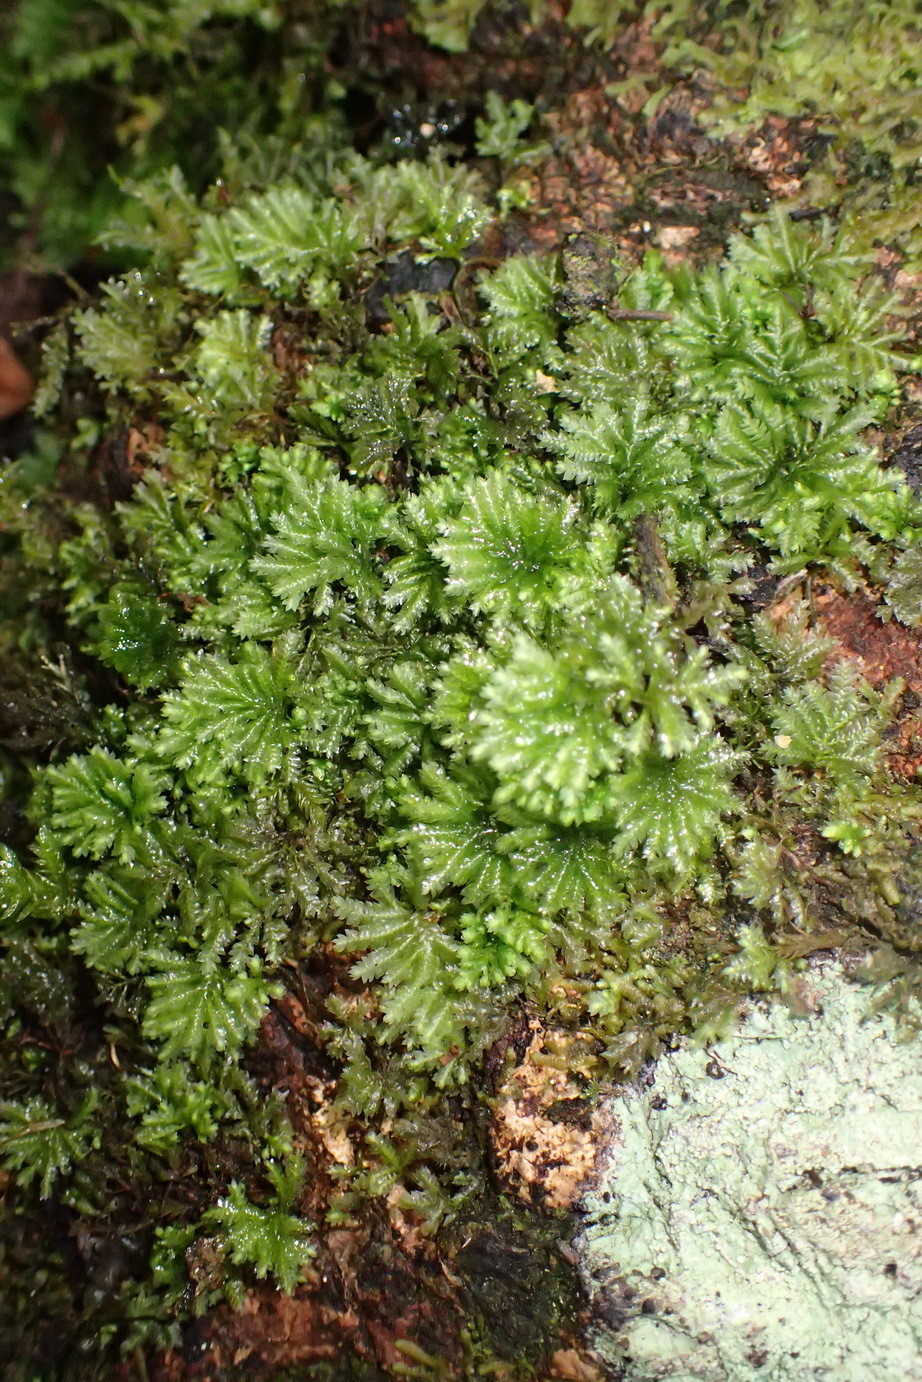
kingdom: Plantae
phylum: Bryophyta
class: Bryopsida
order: Hypopterygiales
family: Hypopterygiaceae
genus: Hypopterygium
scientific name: Hypopterygium tamarisci
